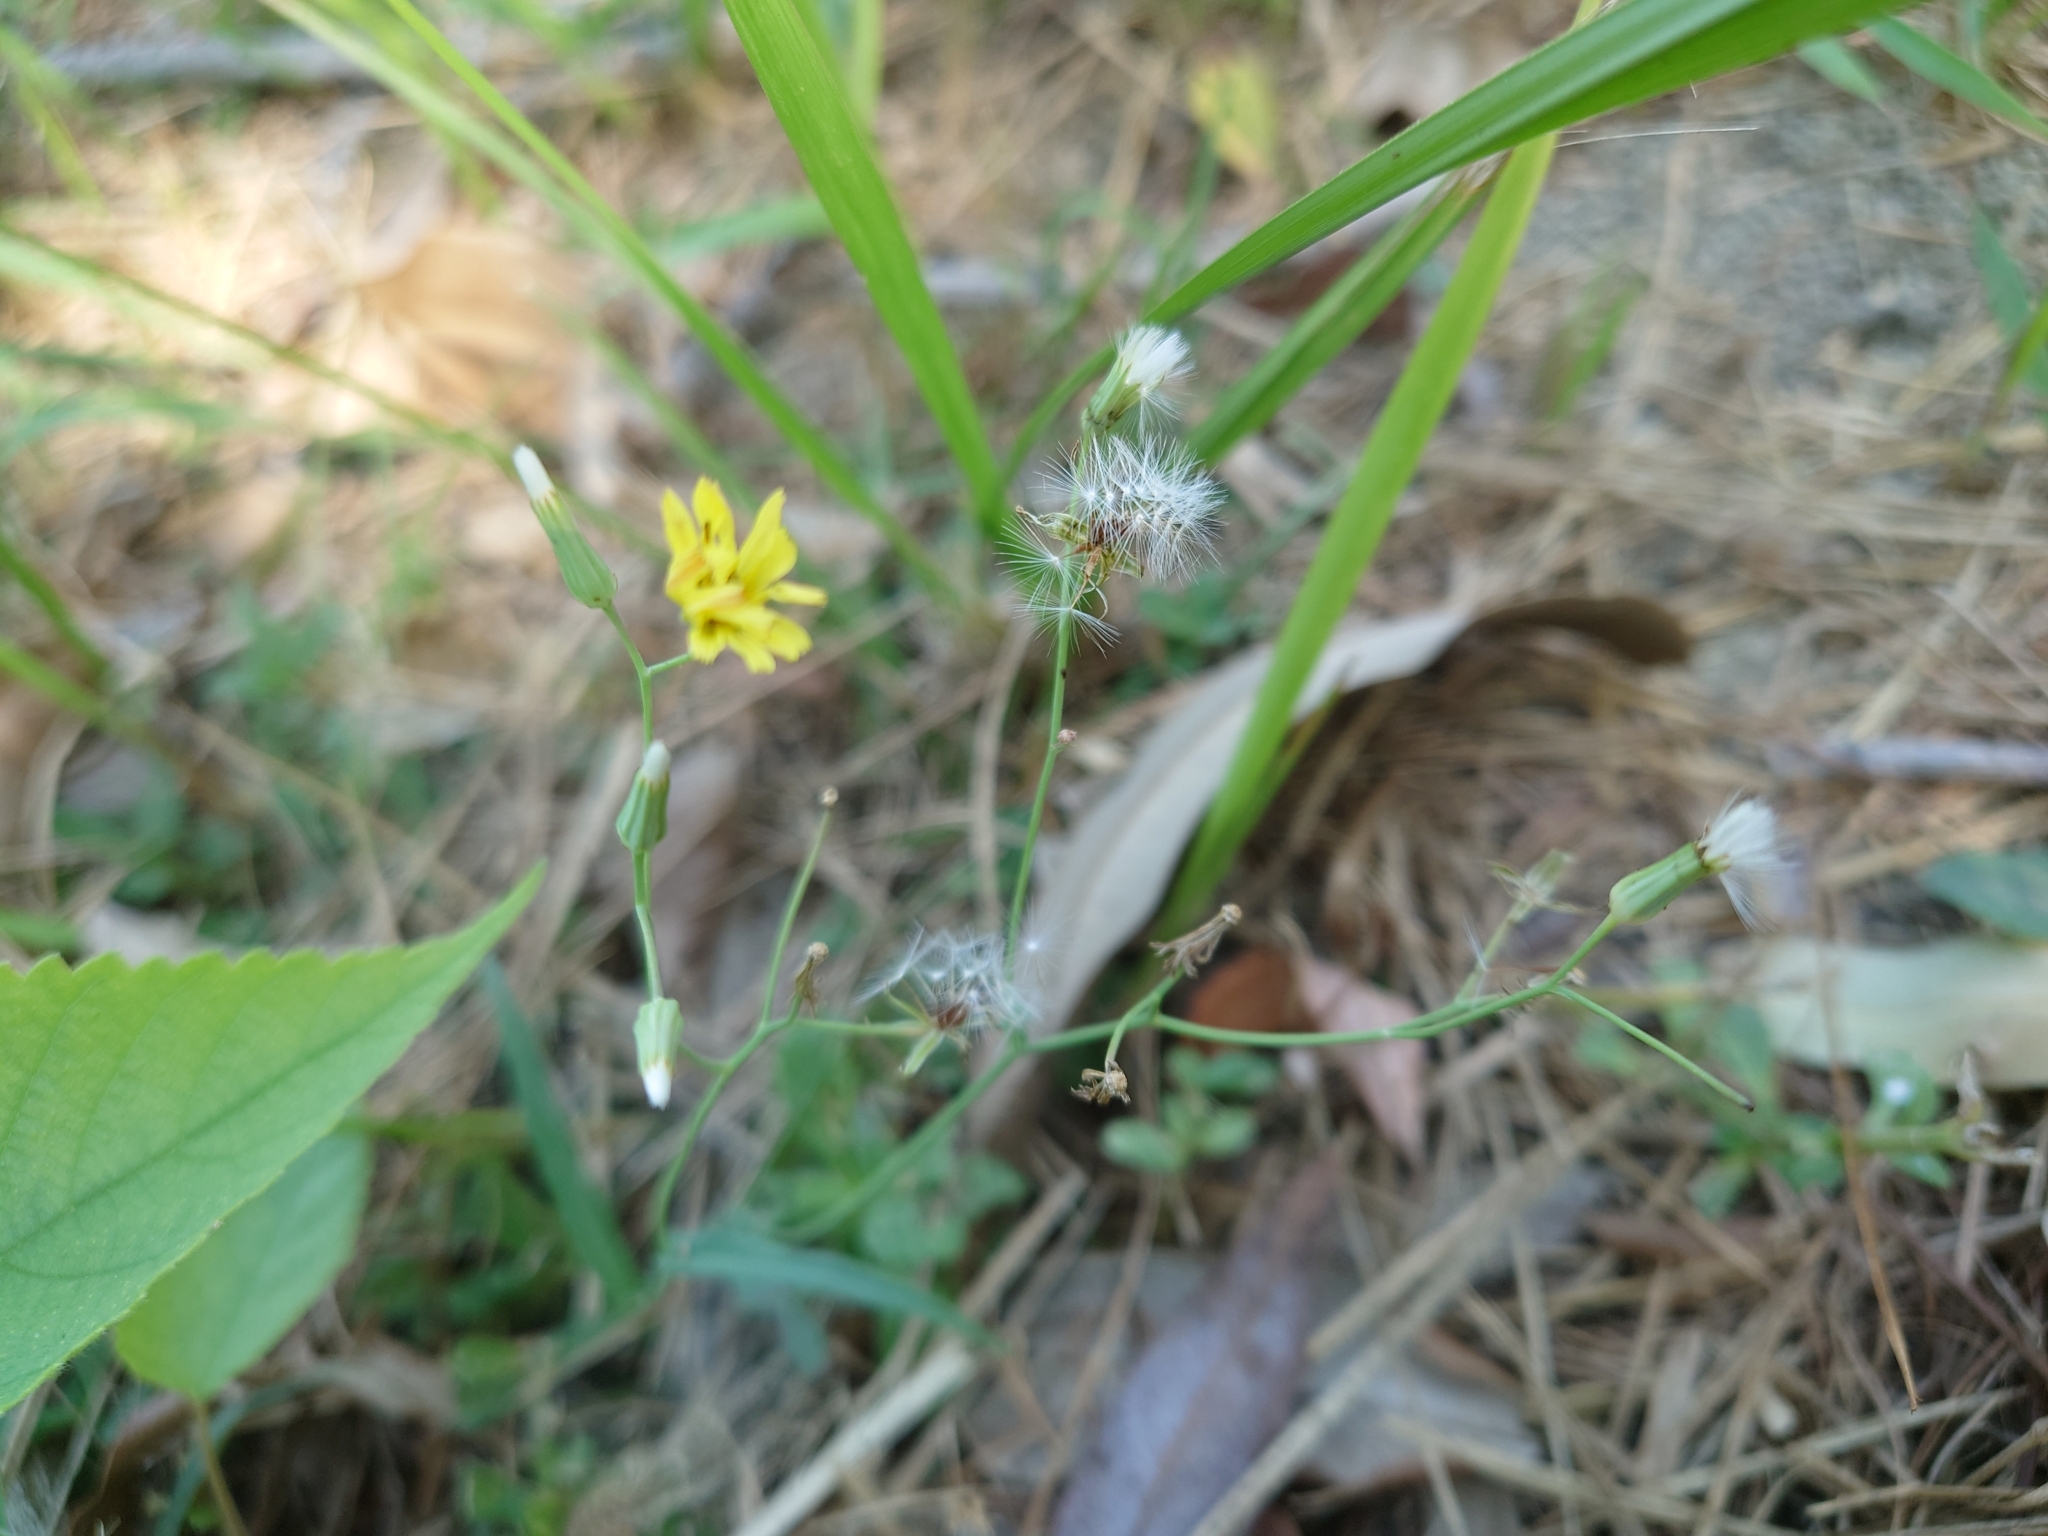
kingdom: Plantae
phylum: Tracheophyta
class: Magnoliopsida
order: Asterales
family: Asteraceae
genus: Ixeris
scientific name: Ixeris chinensis
